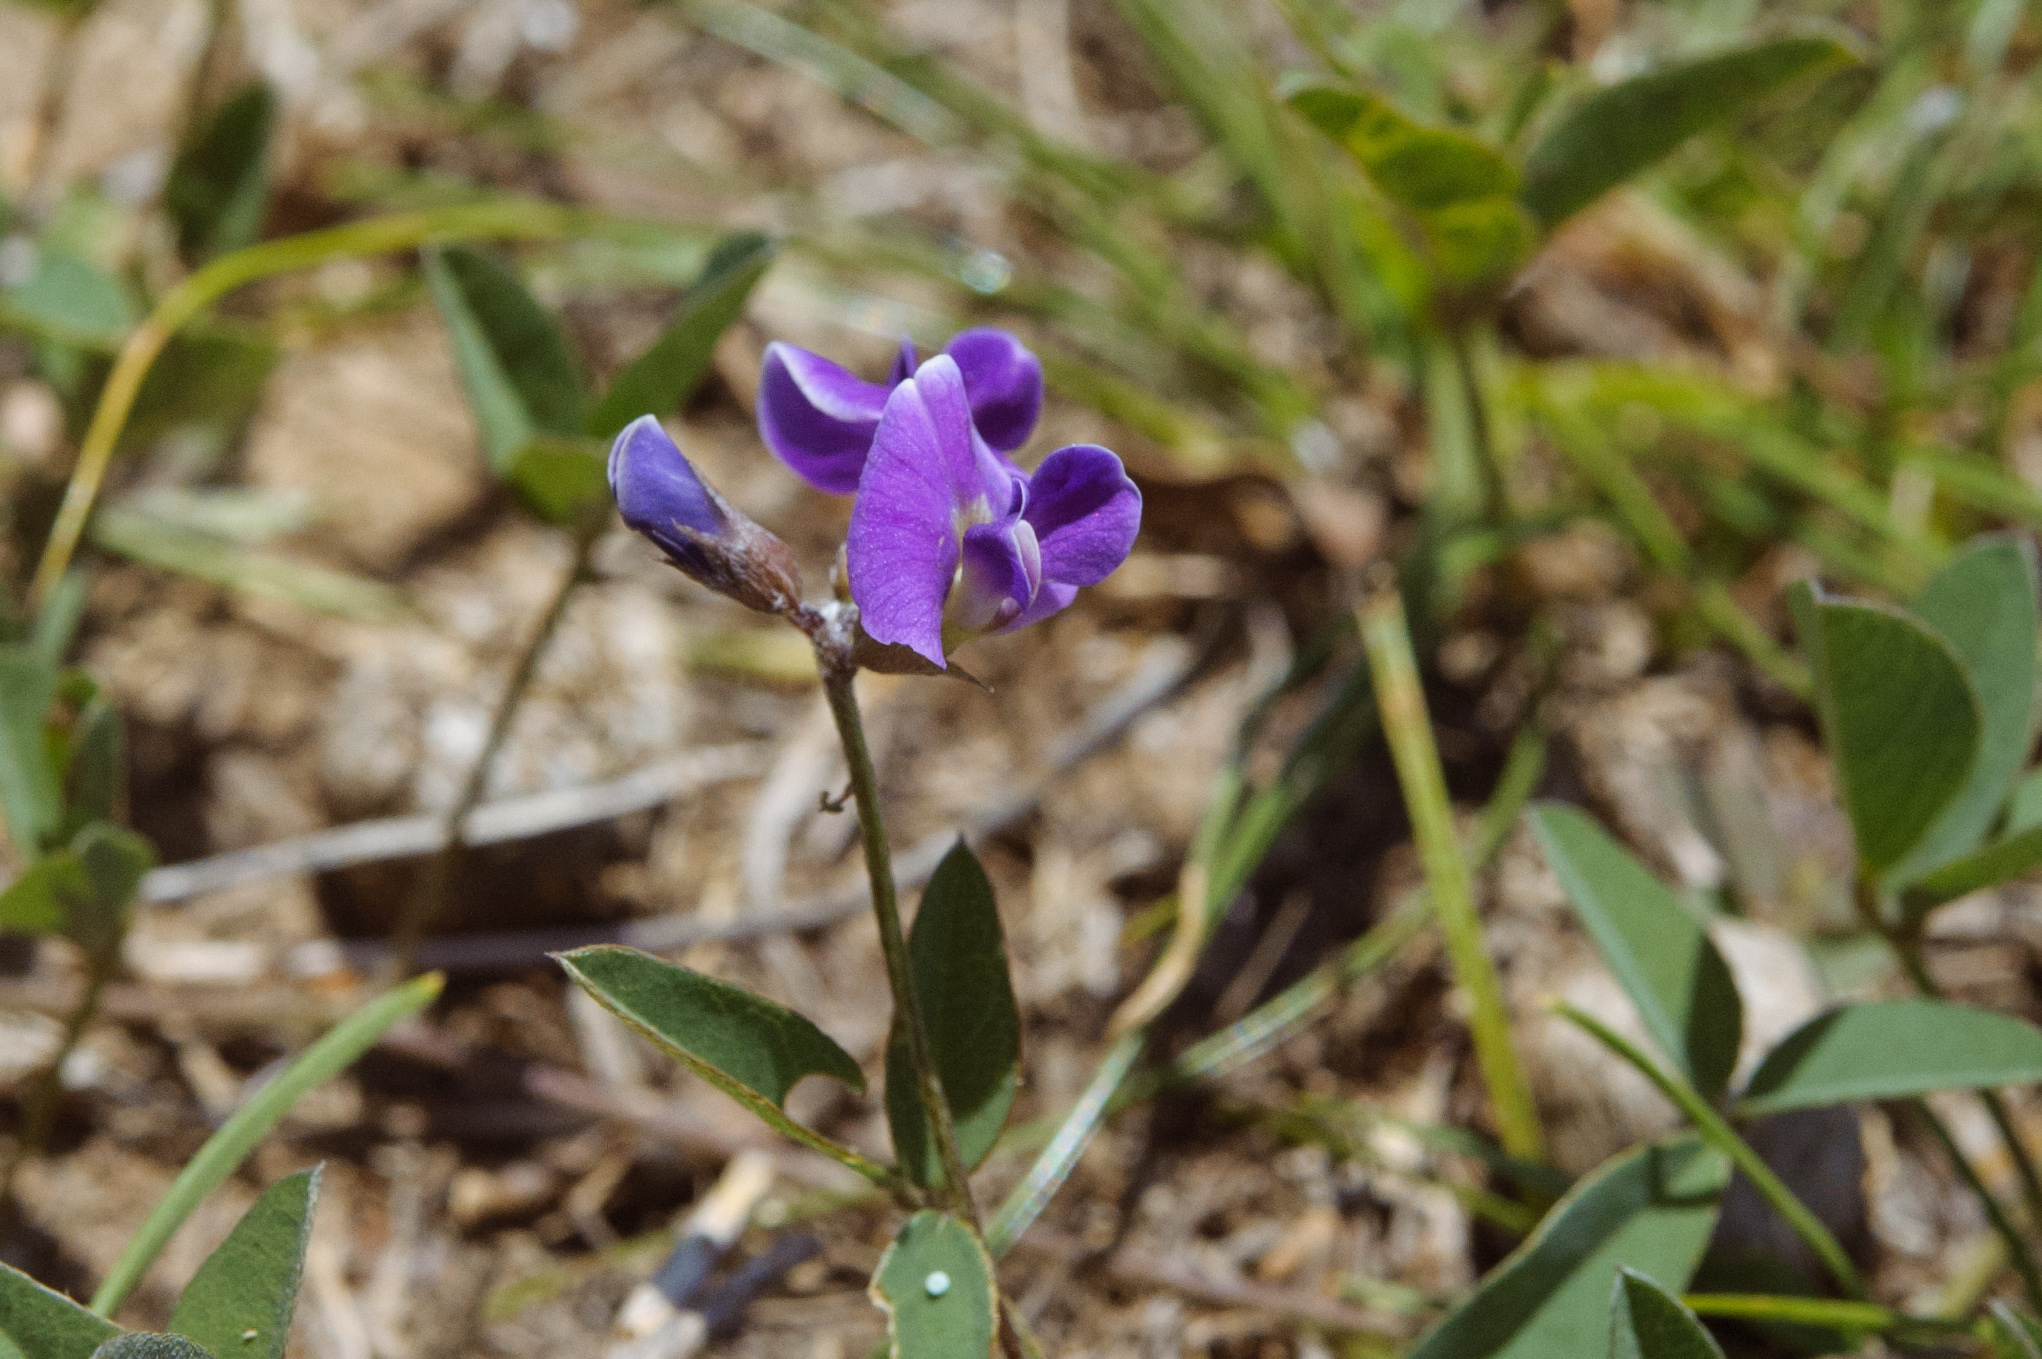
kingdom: Plantae
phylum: Tracheophyta
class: Magnoliopsida
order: Fabales
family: Fabaceae
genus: Glycine
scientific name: Glycine tabacina
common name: Pea glycine
